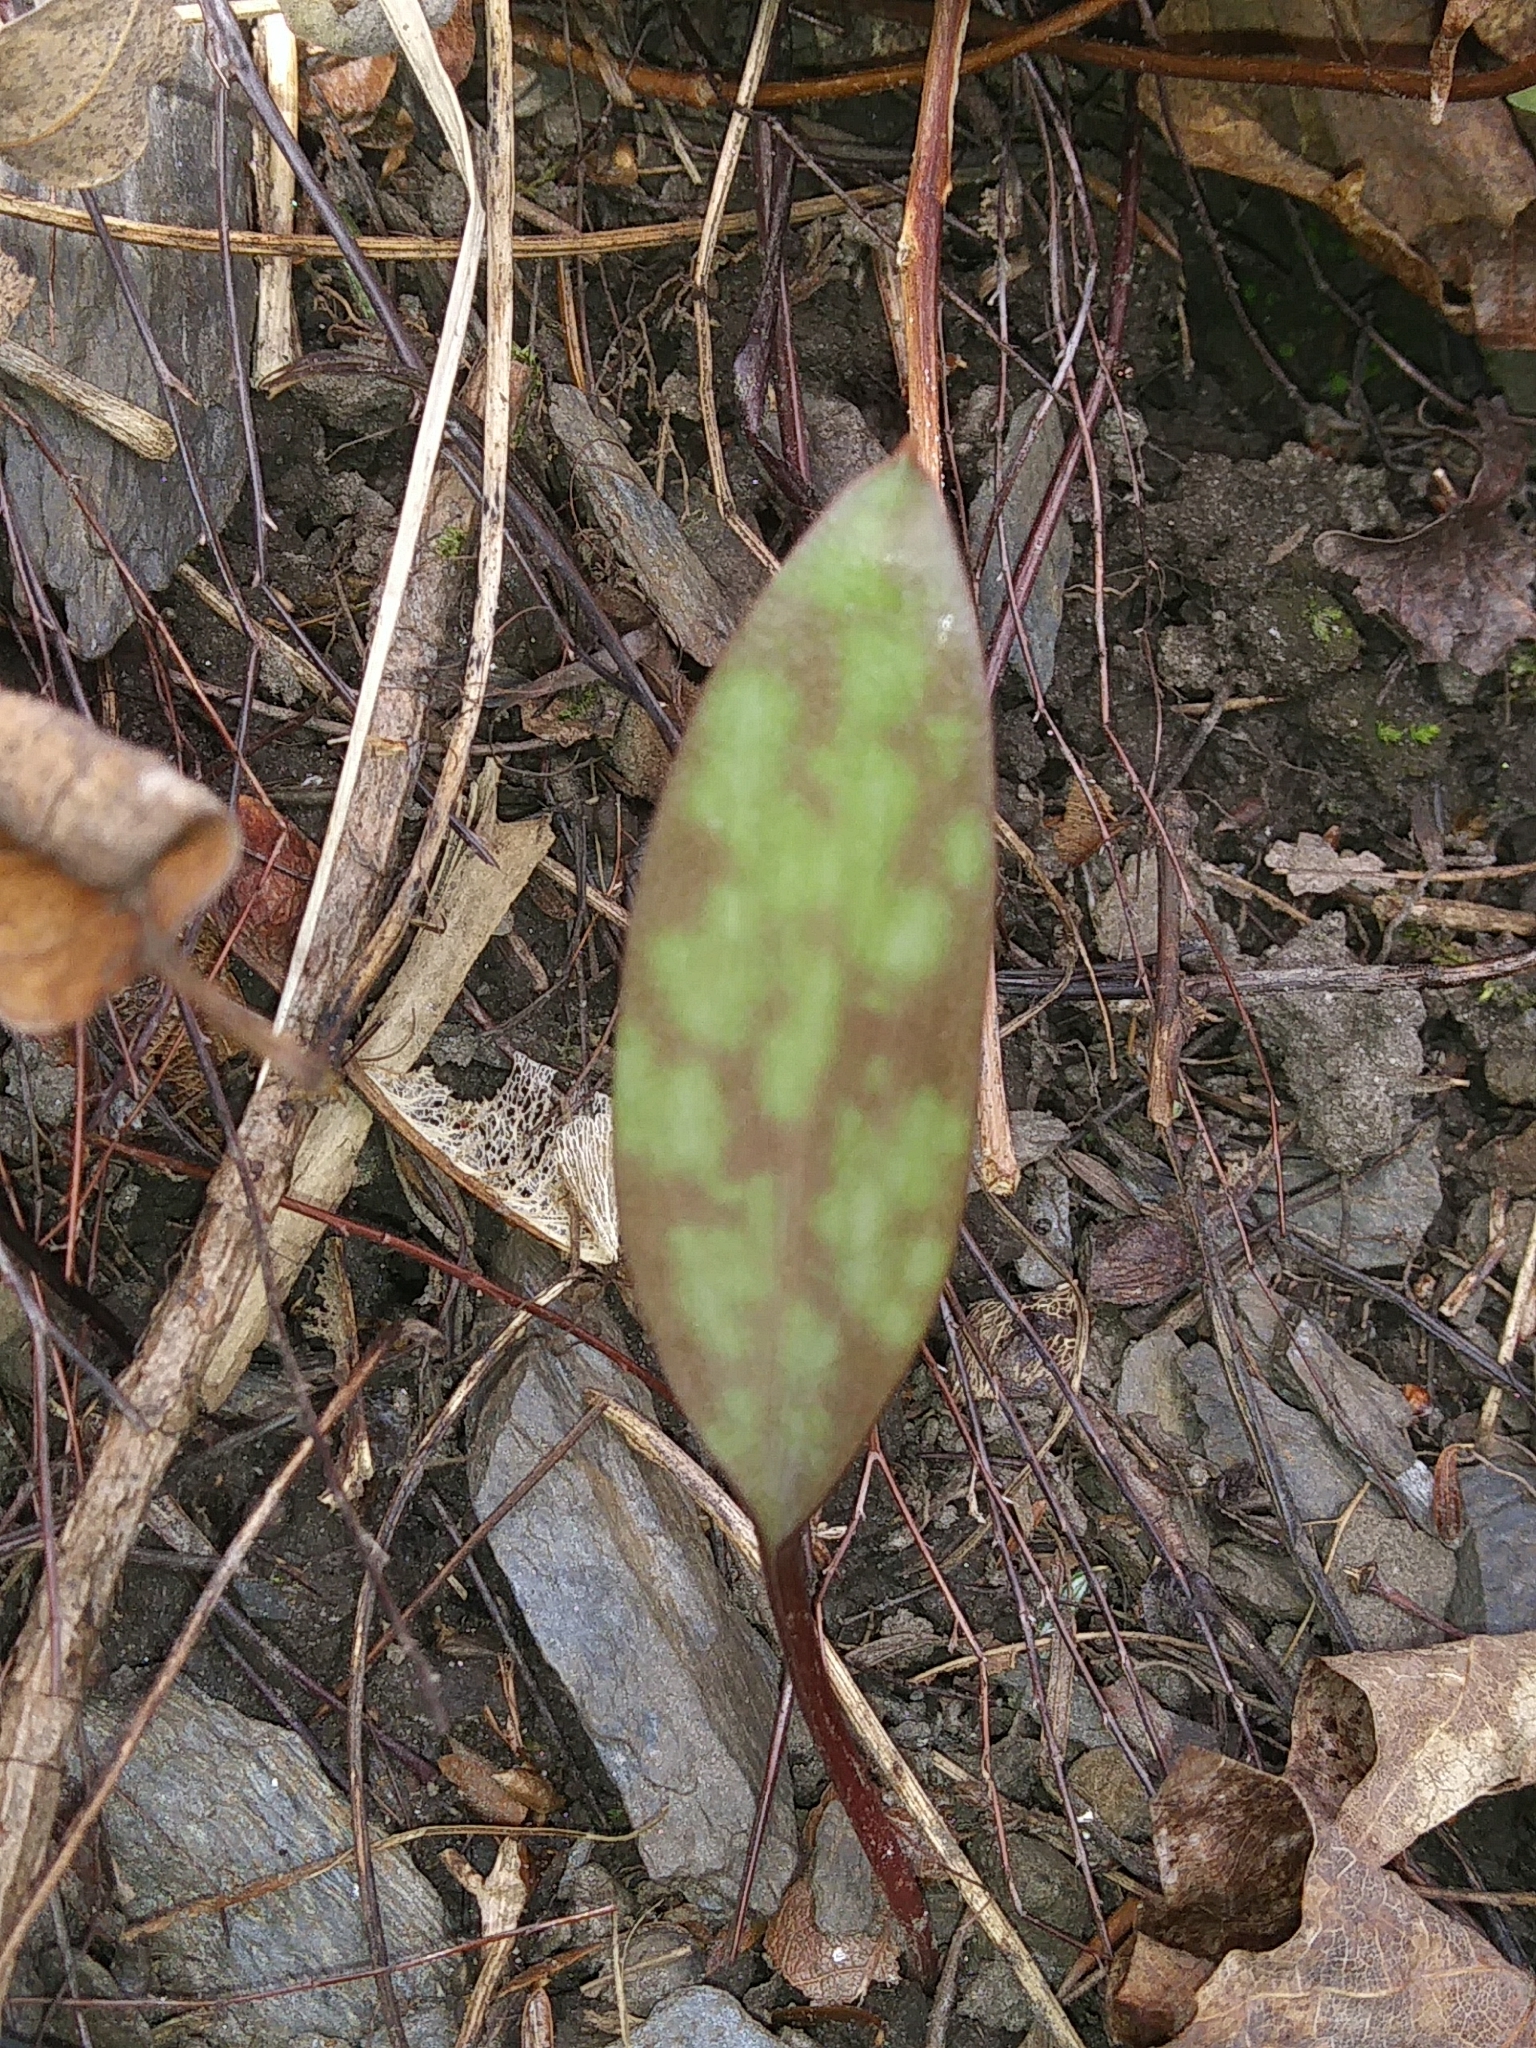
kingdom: Plantae
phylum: Tracheophyta
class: Liliopsida
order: Liliales
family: Liliaceae
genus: Erythronium
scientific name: Erythronium americanum
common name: Yellow adder's-tongue
